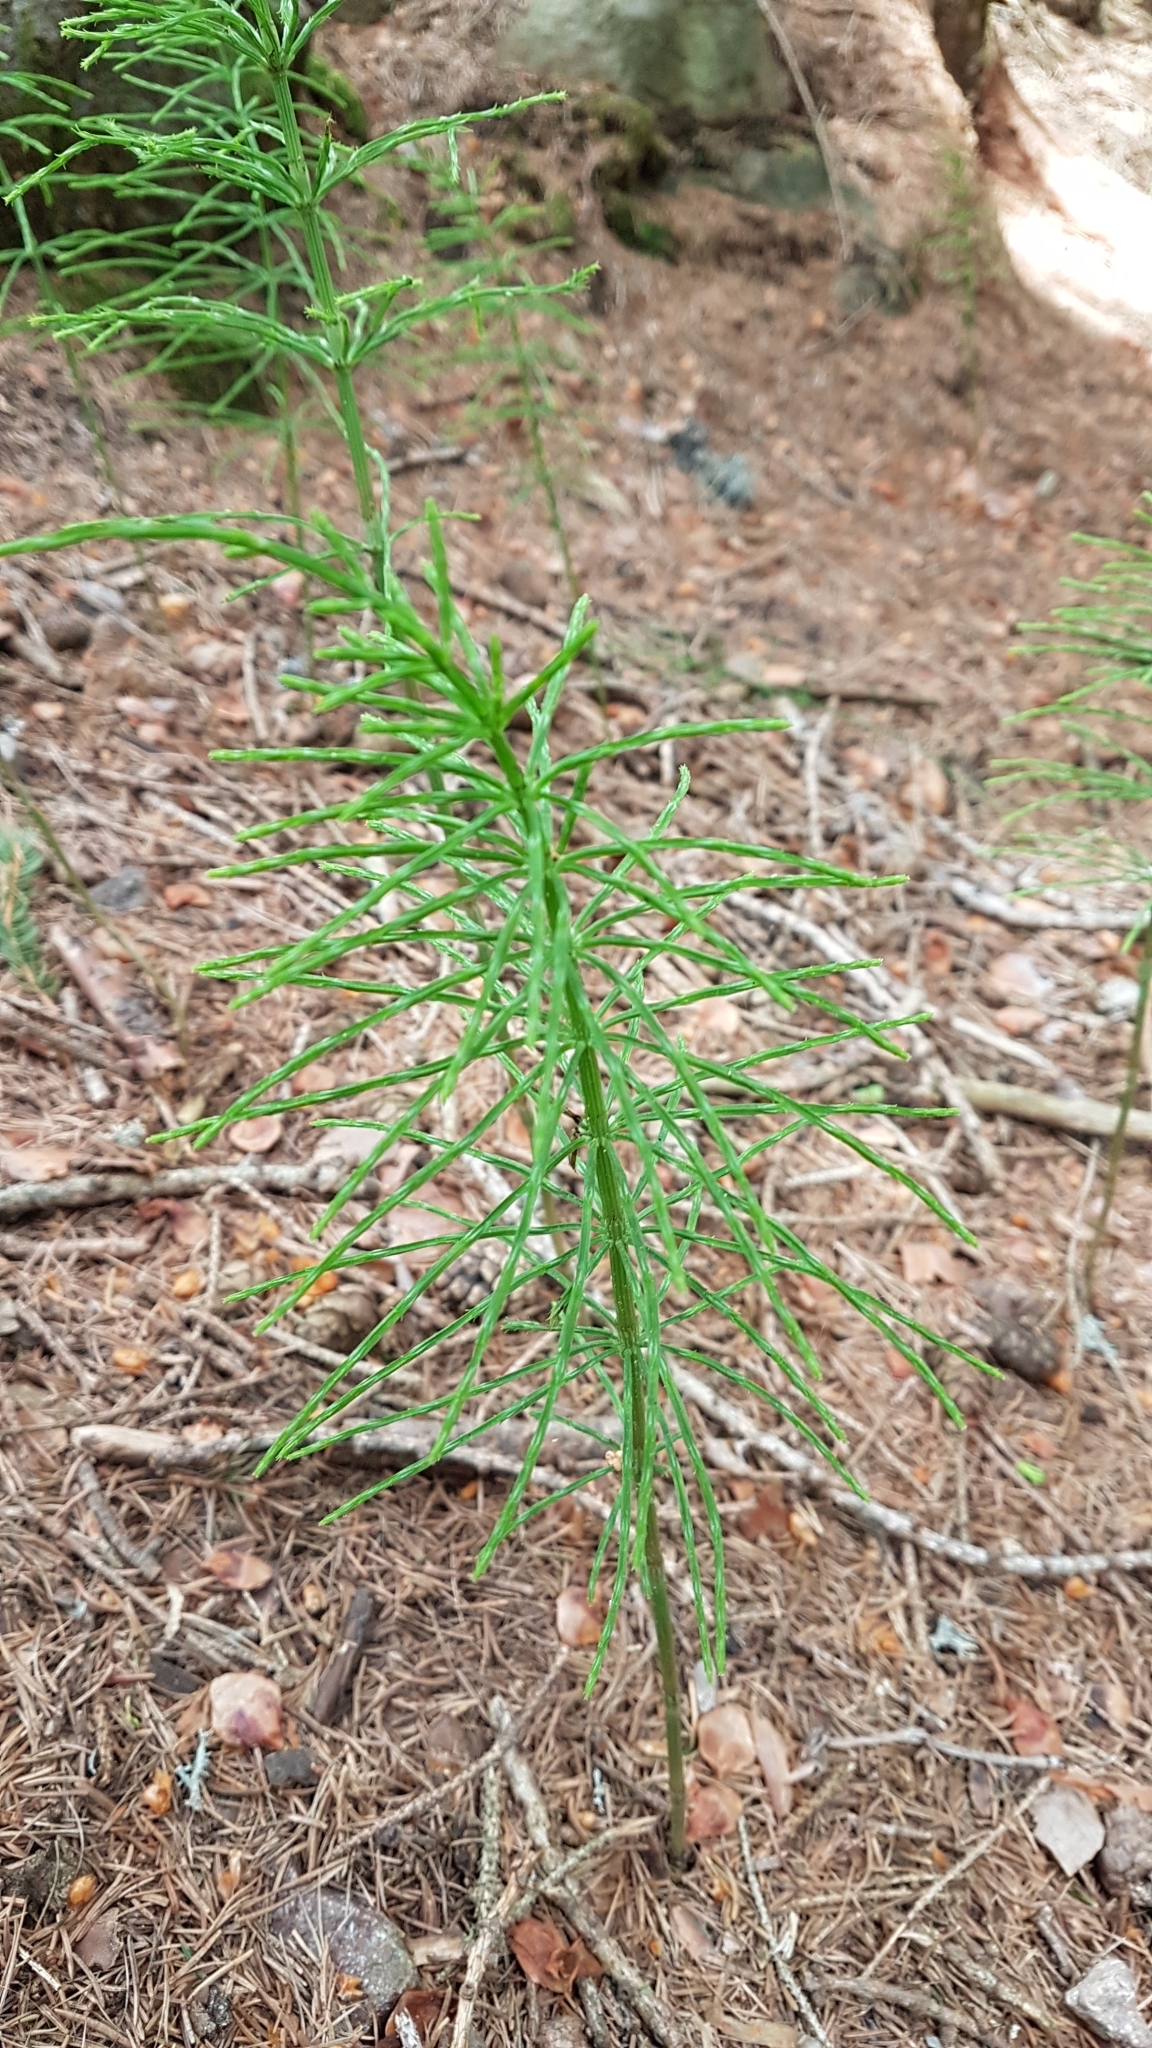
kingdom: Plantae
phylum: Tracheophyta
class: Polypodiopsida
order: Equisetales
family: Equisetaceae
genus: Equisetum
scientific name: Equisetum arvense
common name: Field horsetail
